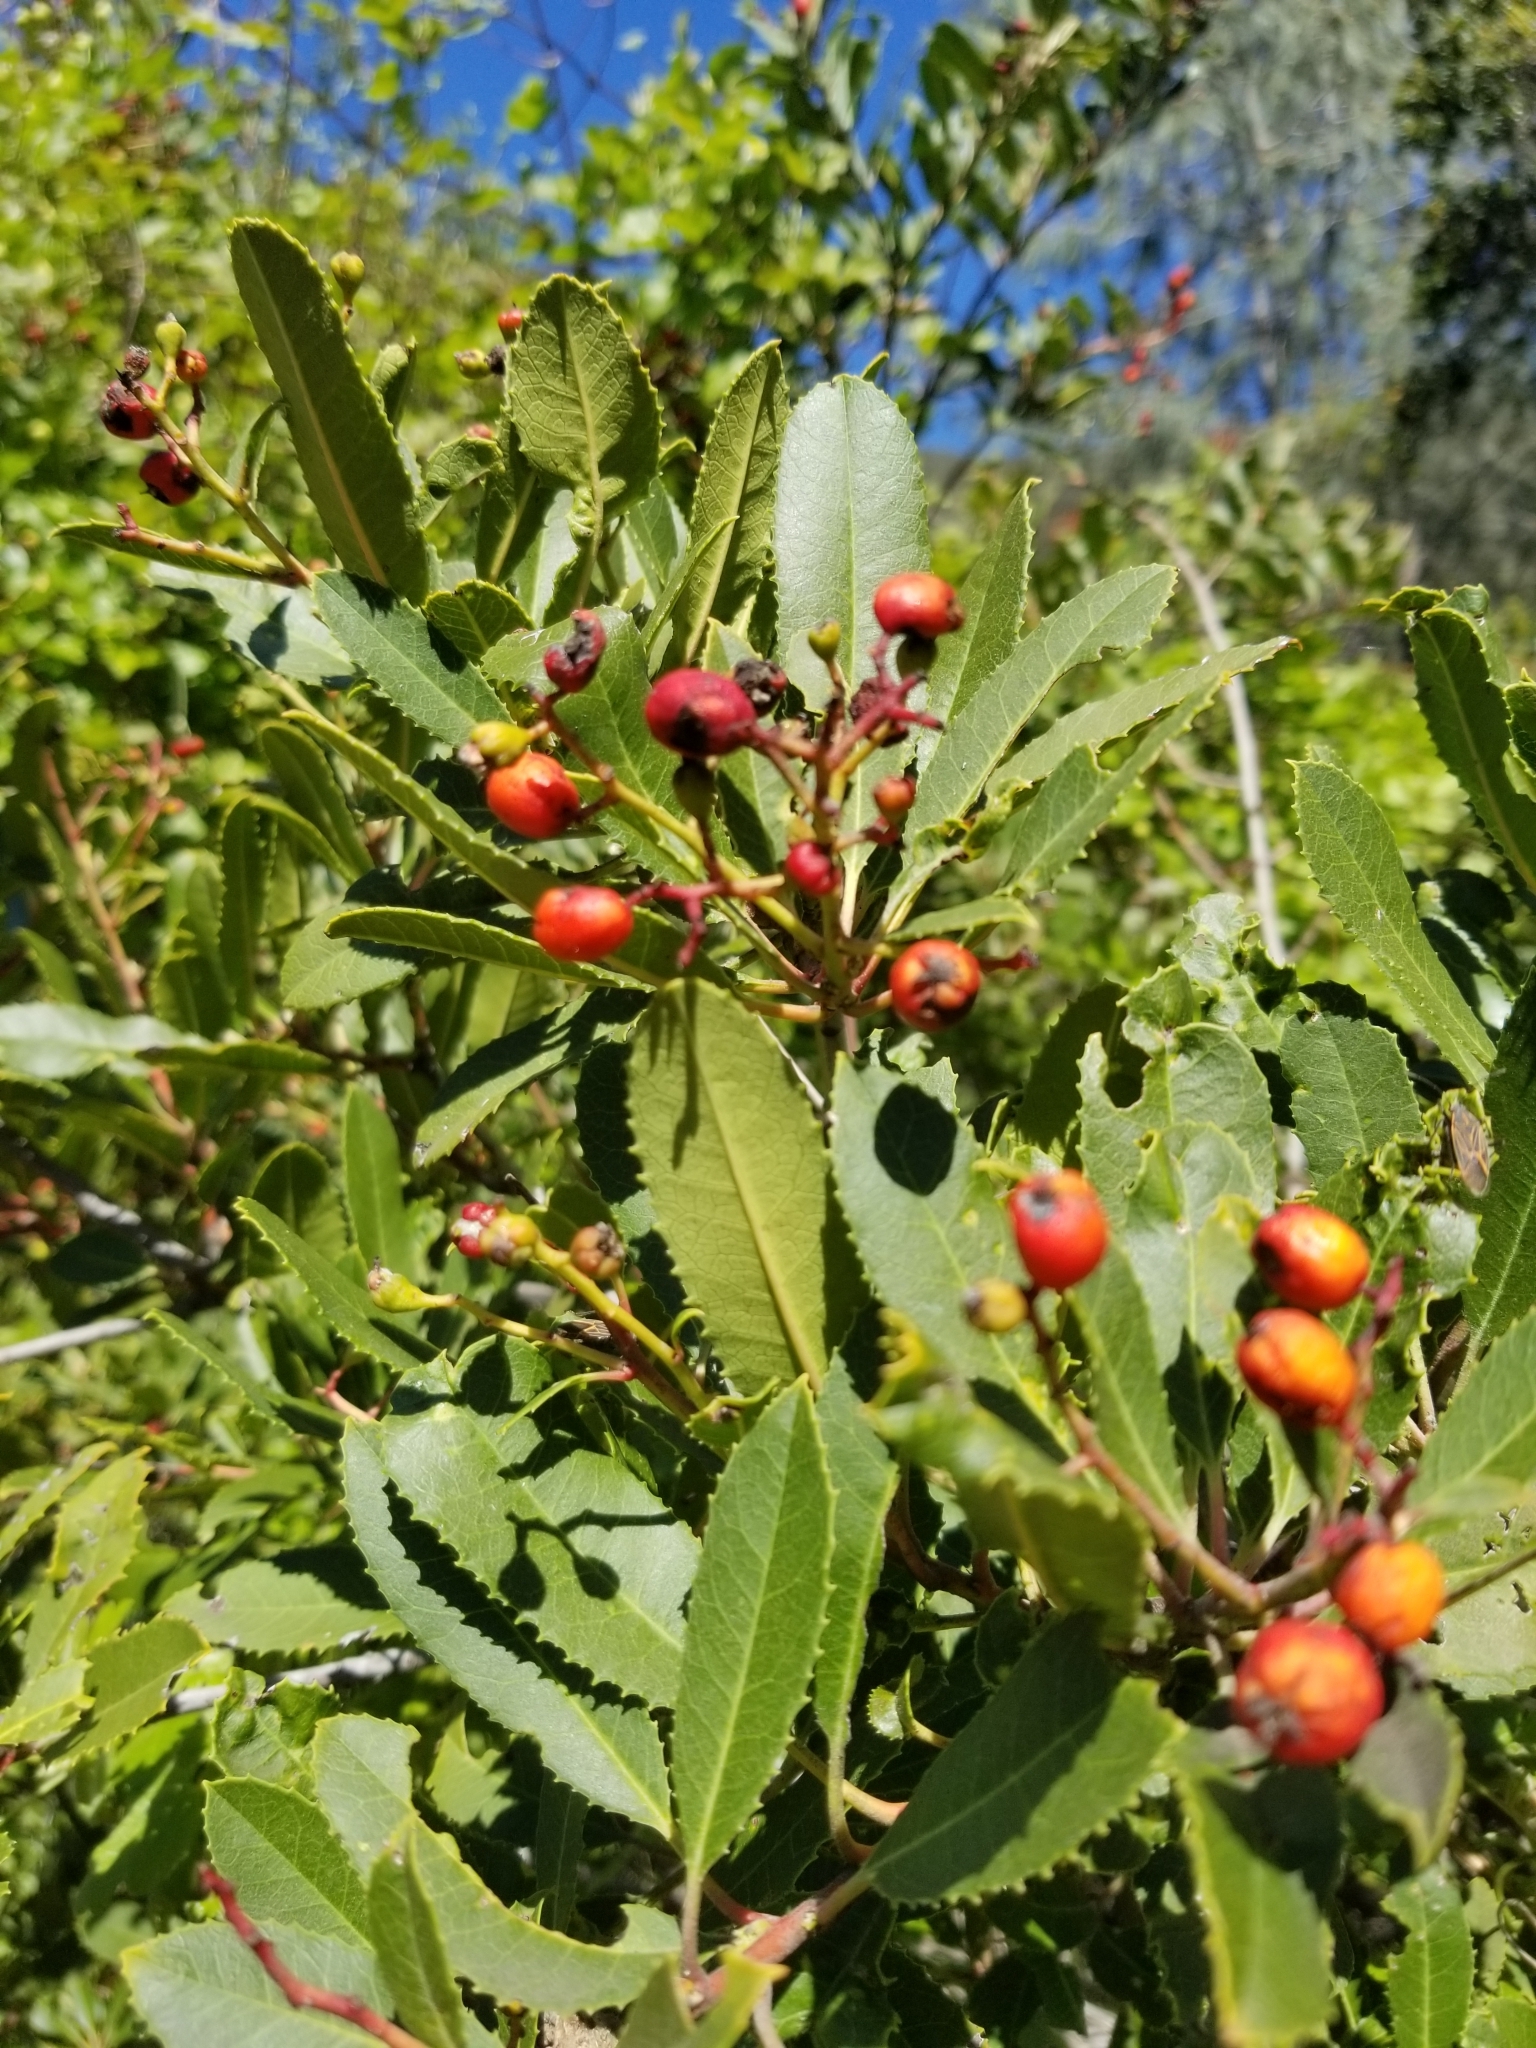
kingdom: Plantae
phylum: Tracheophyta
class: Magnoliopsida
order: Rosales
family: Rosaceae
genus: Heteromeles
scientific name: Heteromeles arbutifolia
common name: California-holly
